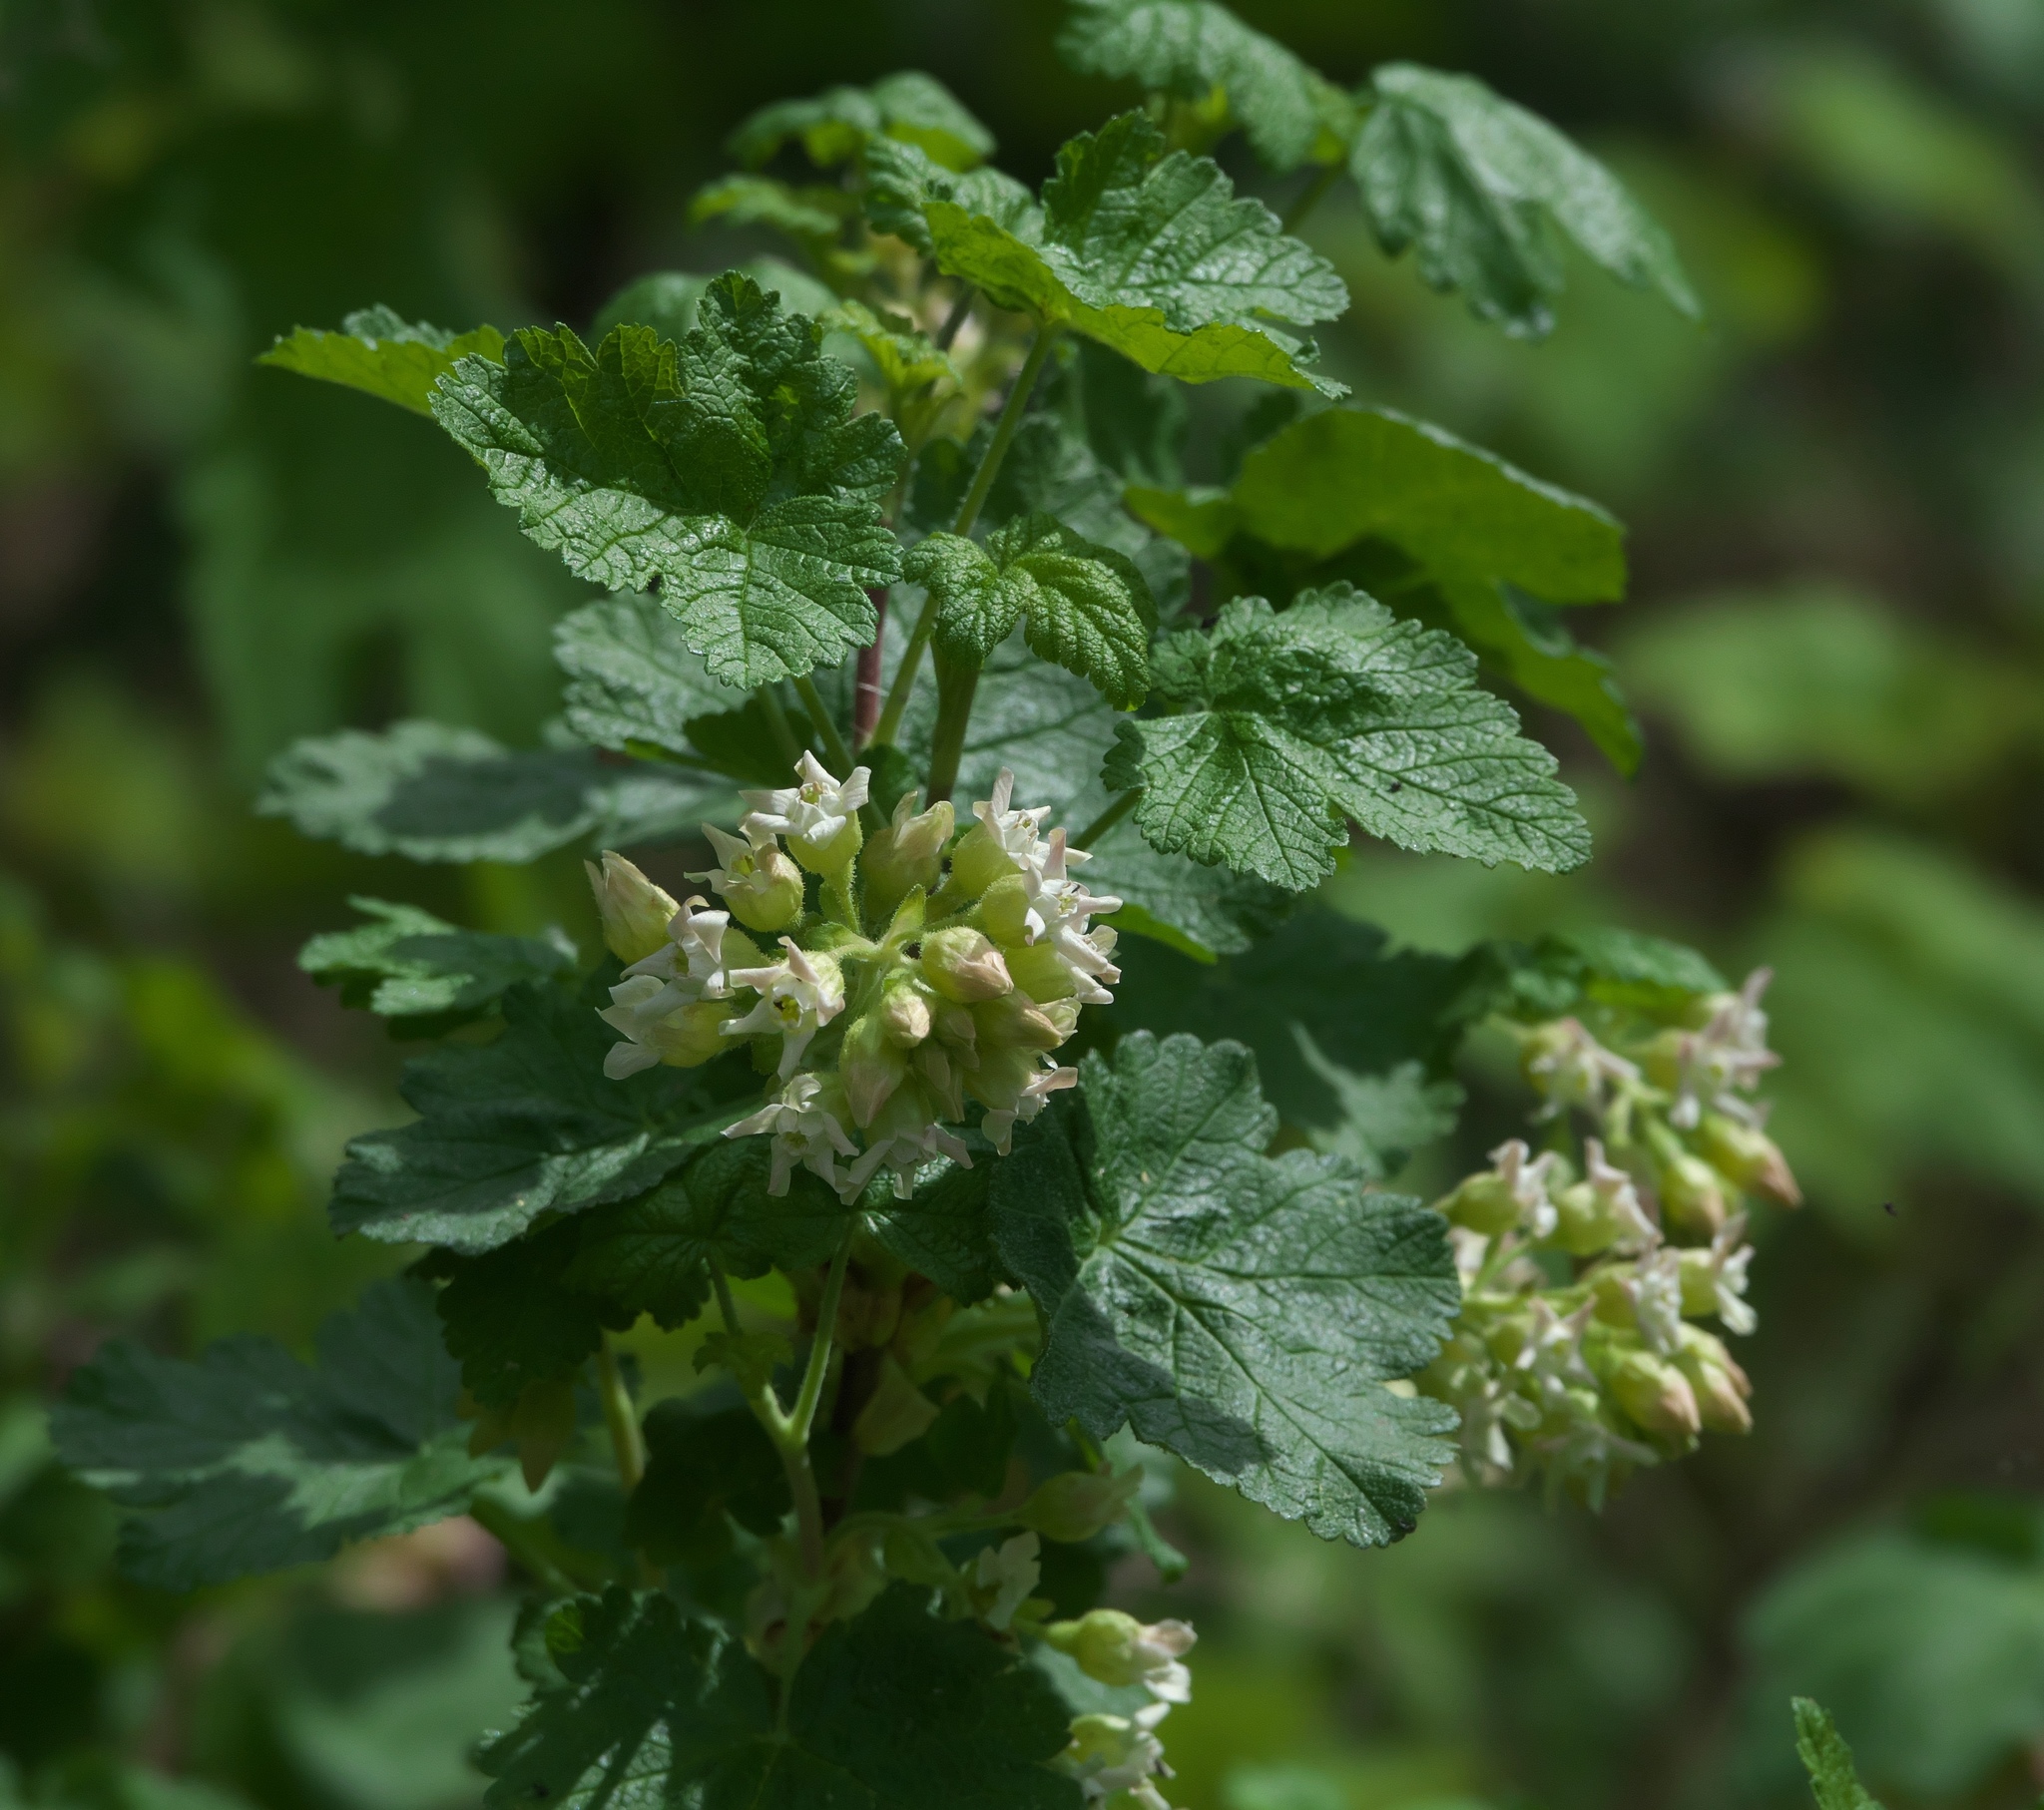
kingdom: Plantae
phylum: Tracheophyta
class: Magnoliopsida
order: Saxifragales
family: Grossulariaceae
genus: Ribes
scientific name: Ribes viscosissimum
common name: Sticky currant
